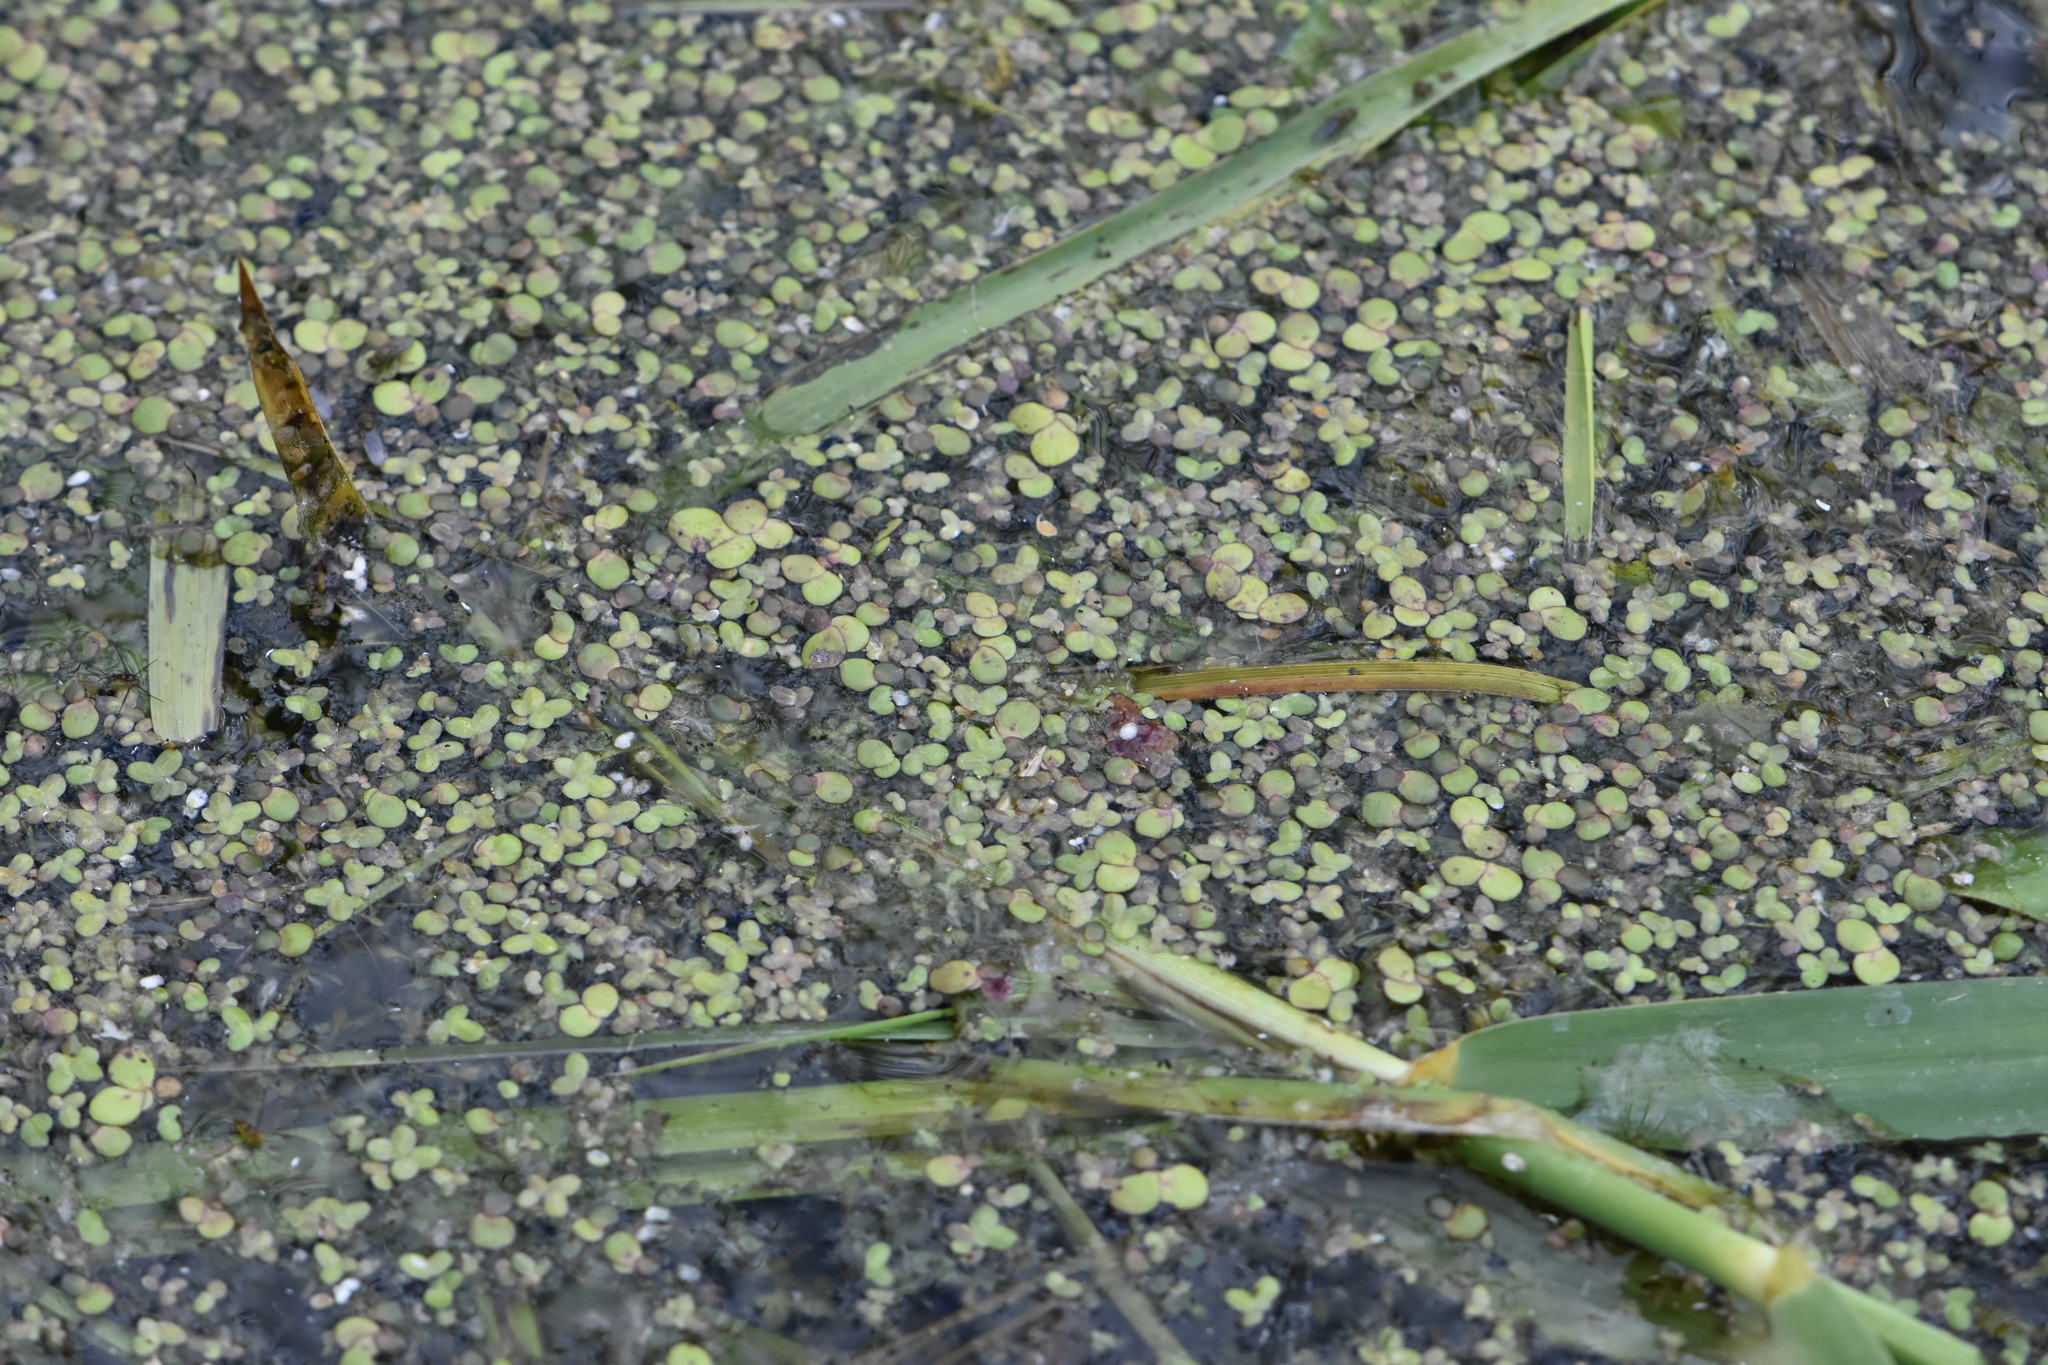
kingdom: Plantae
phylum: Tracheophyta
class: Liliopsida
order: Alismatales
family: Araceae
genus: Spirodela
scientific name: Spirodela polyrhiza
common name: Great duckweed
